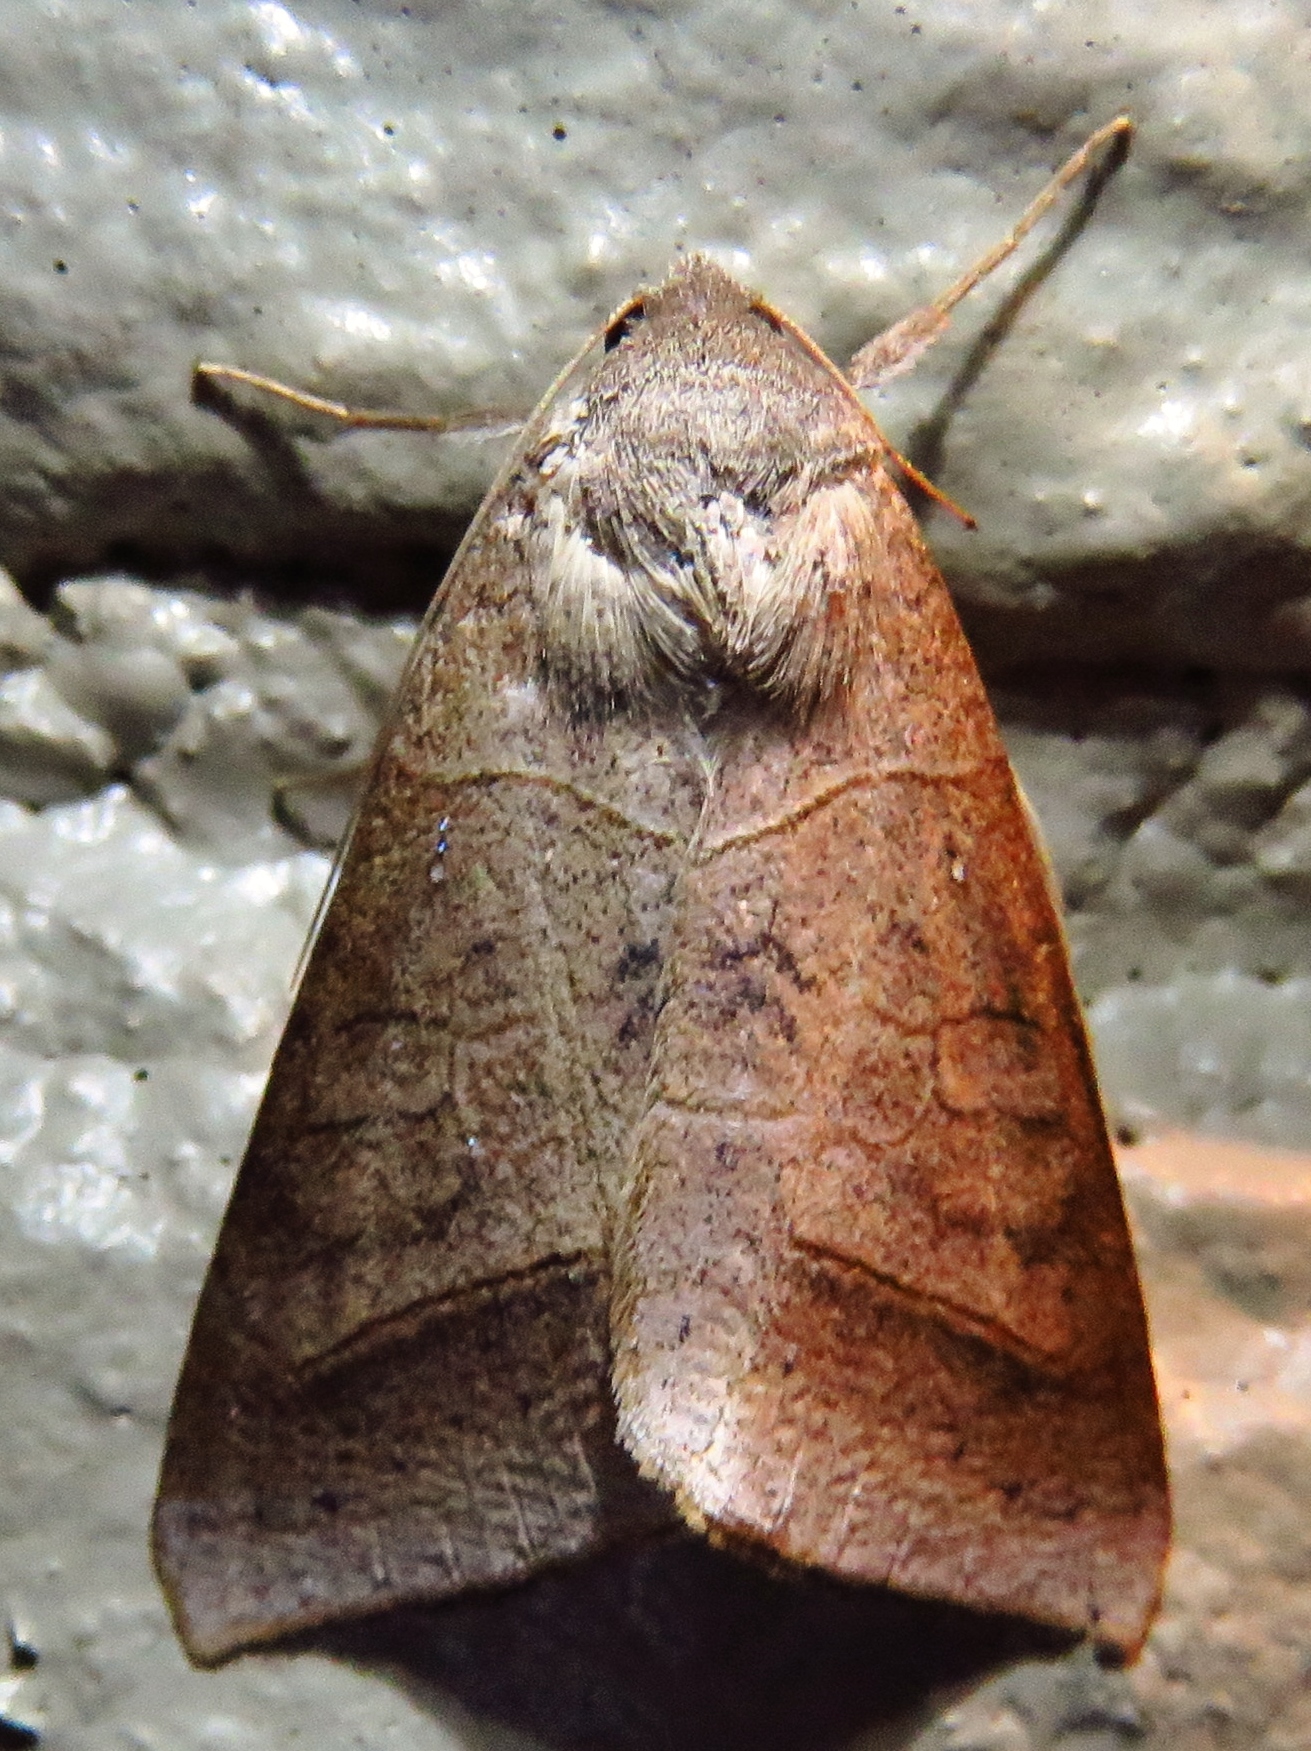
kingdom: Animalia
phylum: Arthropoda
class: Insecta
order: Lepidoptera
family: Erebidae
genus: Mocis
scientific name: Mocis marcida
